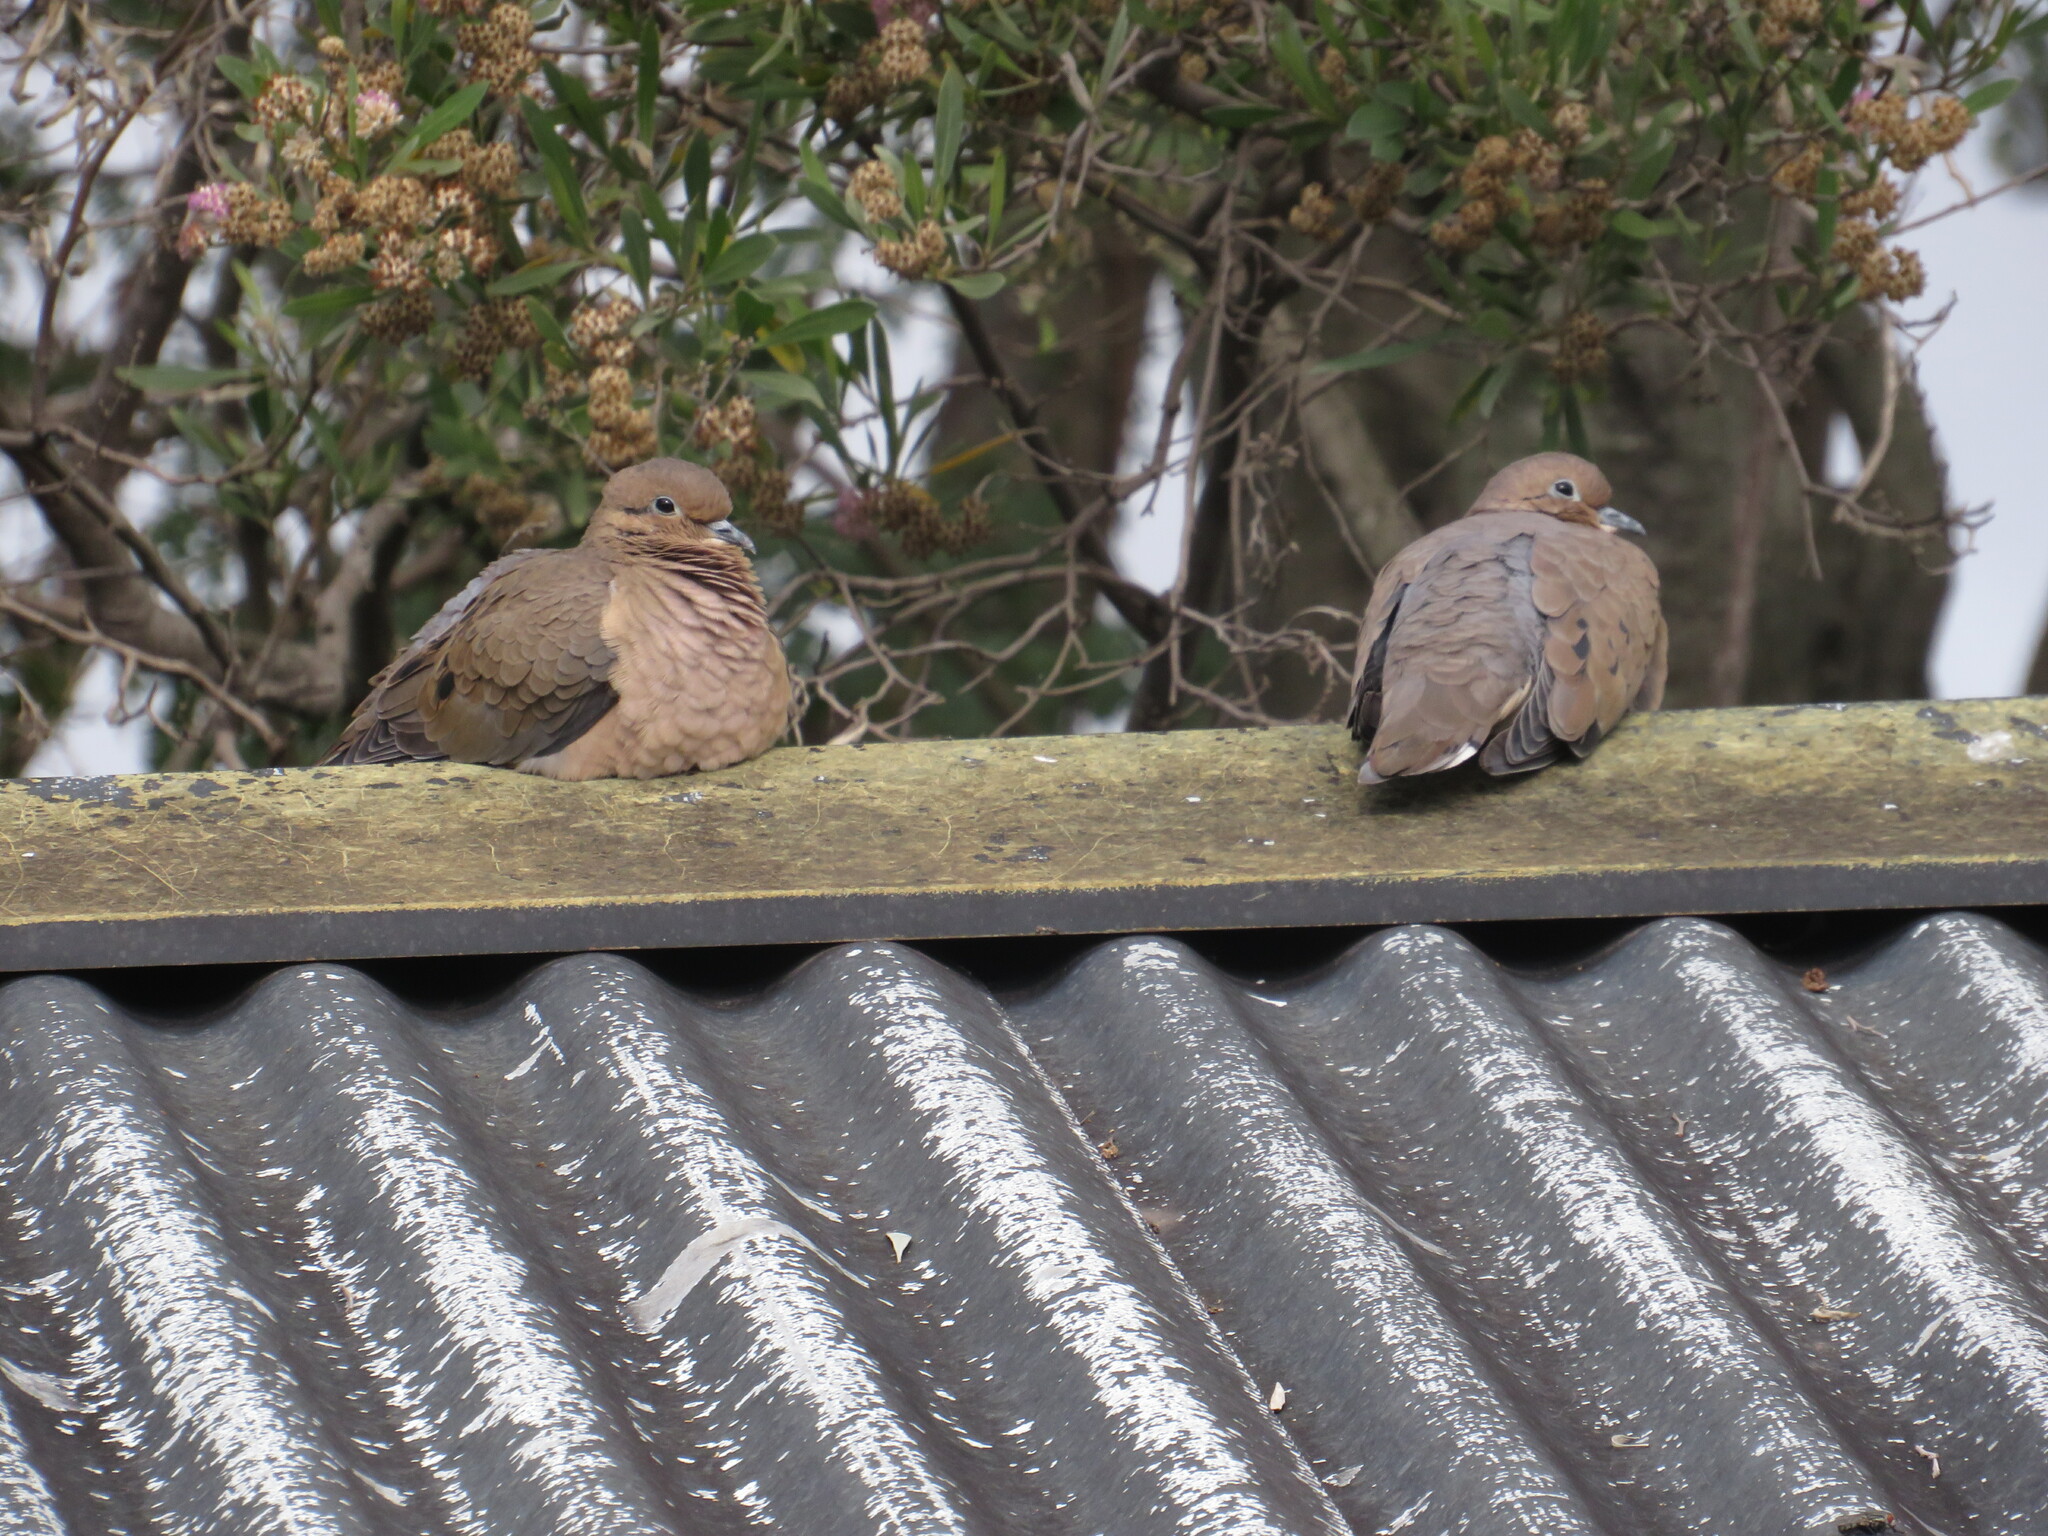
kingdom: Animalia
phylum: Chordata
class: Aves
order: Columbiformes
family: Columbidae
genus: Zenaida
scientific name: Zenaida auriculata
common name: Eared dove
